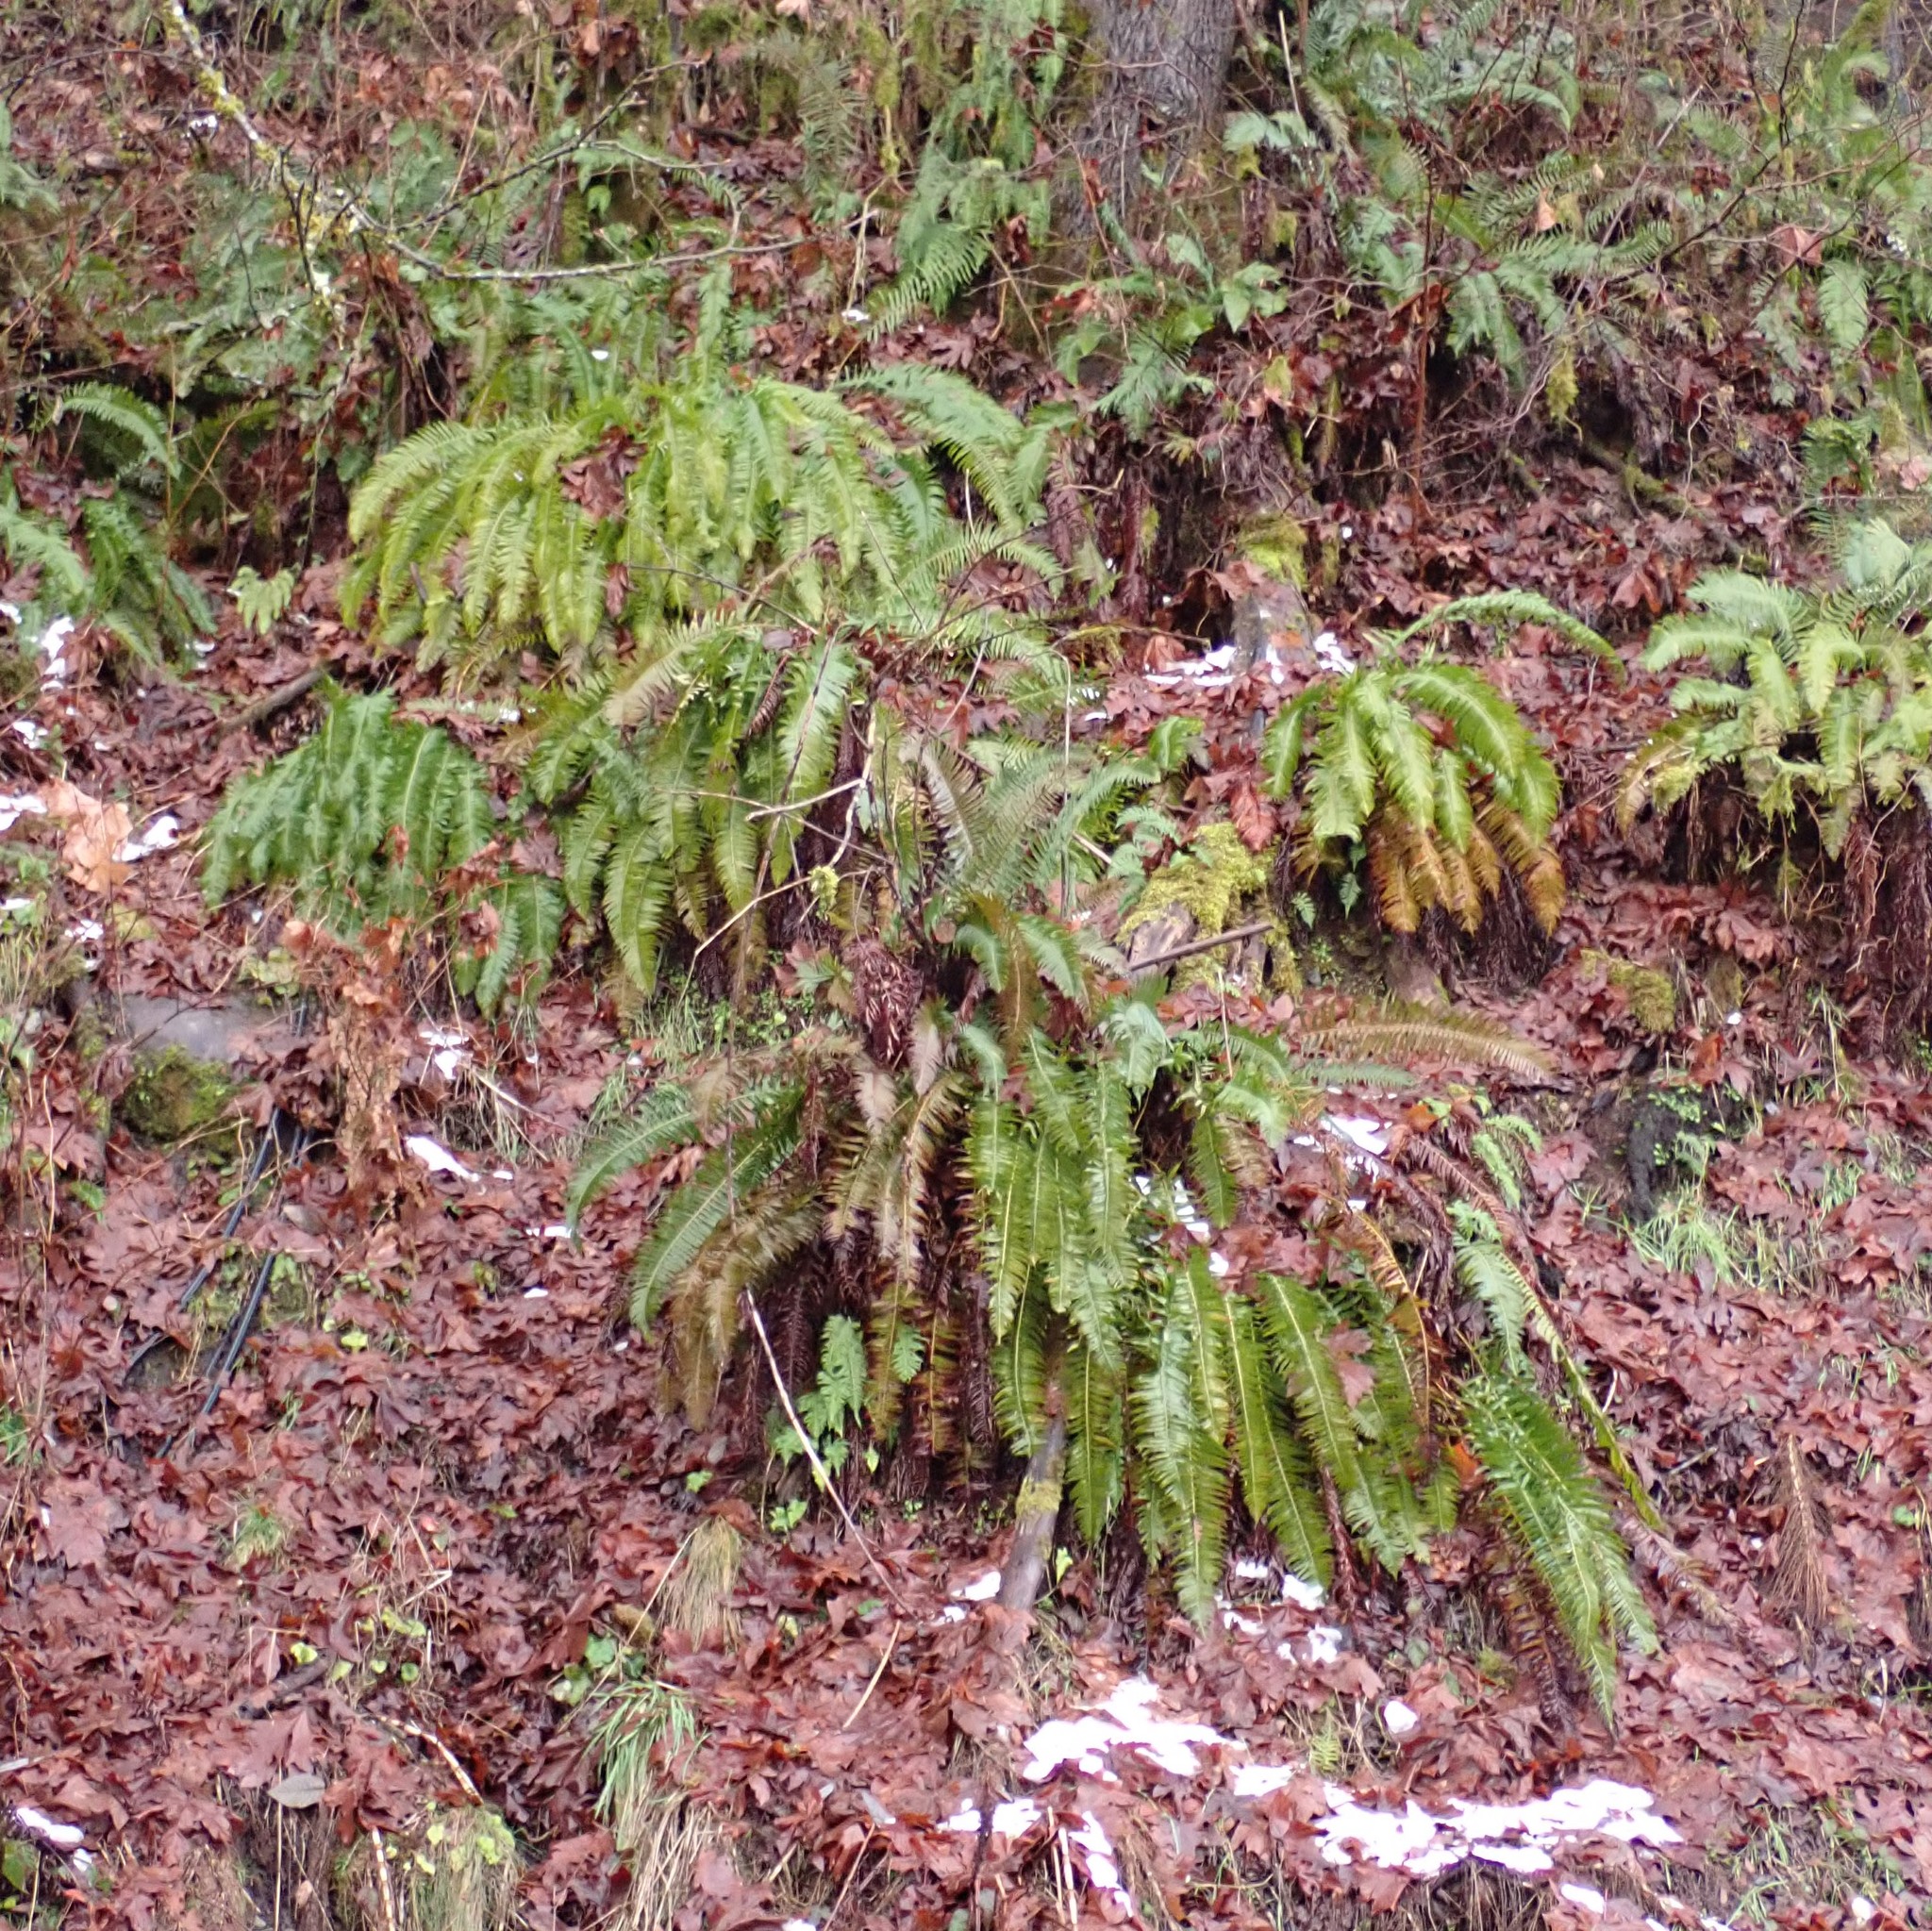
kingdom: Plantae
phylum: Tracheophyta
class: Polypodiopsida
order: Polypodiales
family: Dryopteridaceae
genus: Polystichum
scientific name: Polystichum munitum
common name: Western sword-fern
